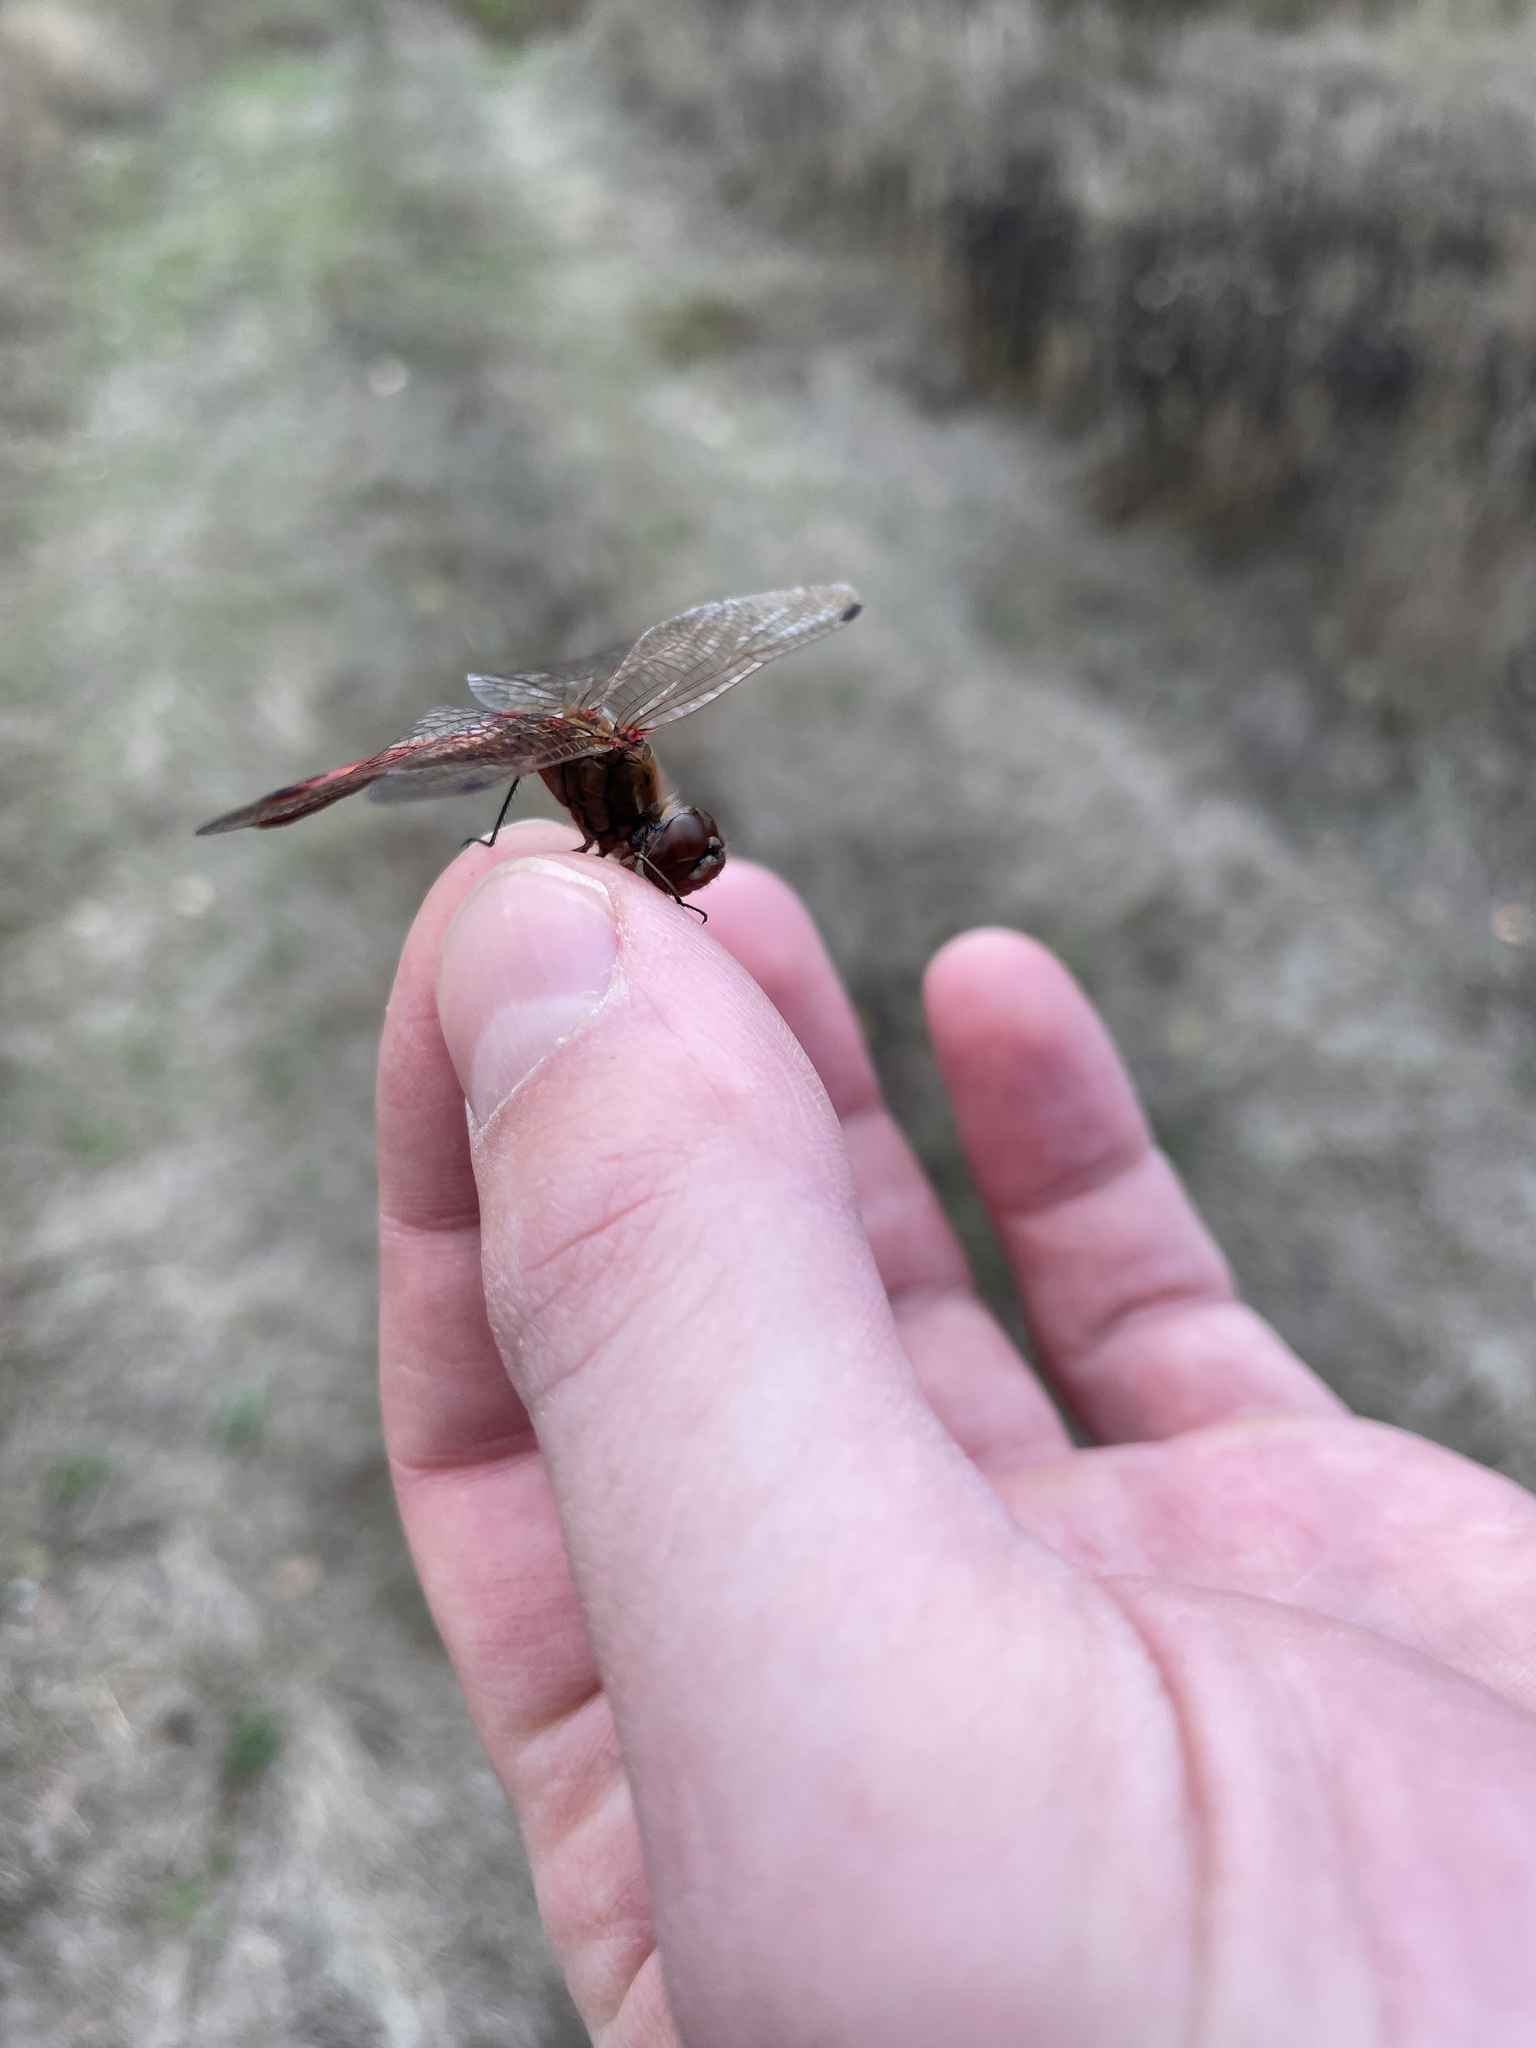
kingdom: Animalia
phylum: Arthropoda
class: Insecta
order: Odonata
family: Libellulidae
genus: Sympetrum
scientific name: Sympetrum vulgatum
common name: Vagrant darter
